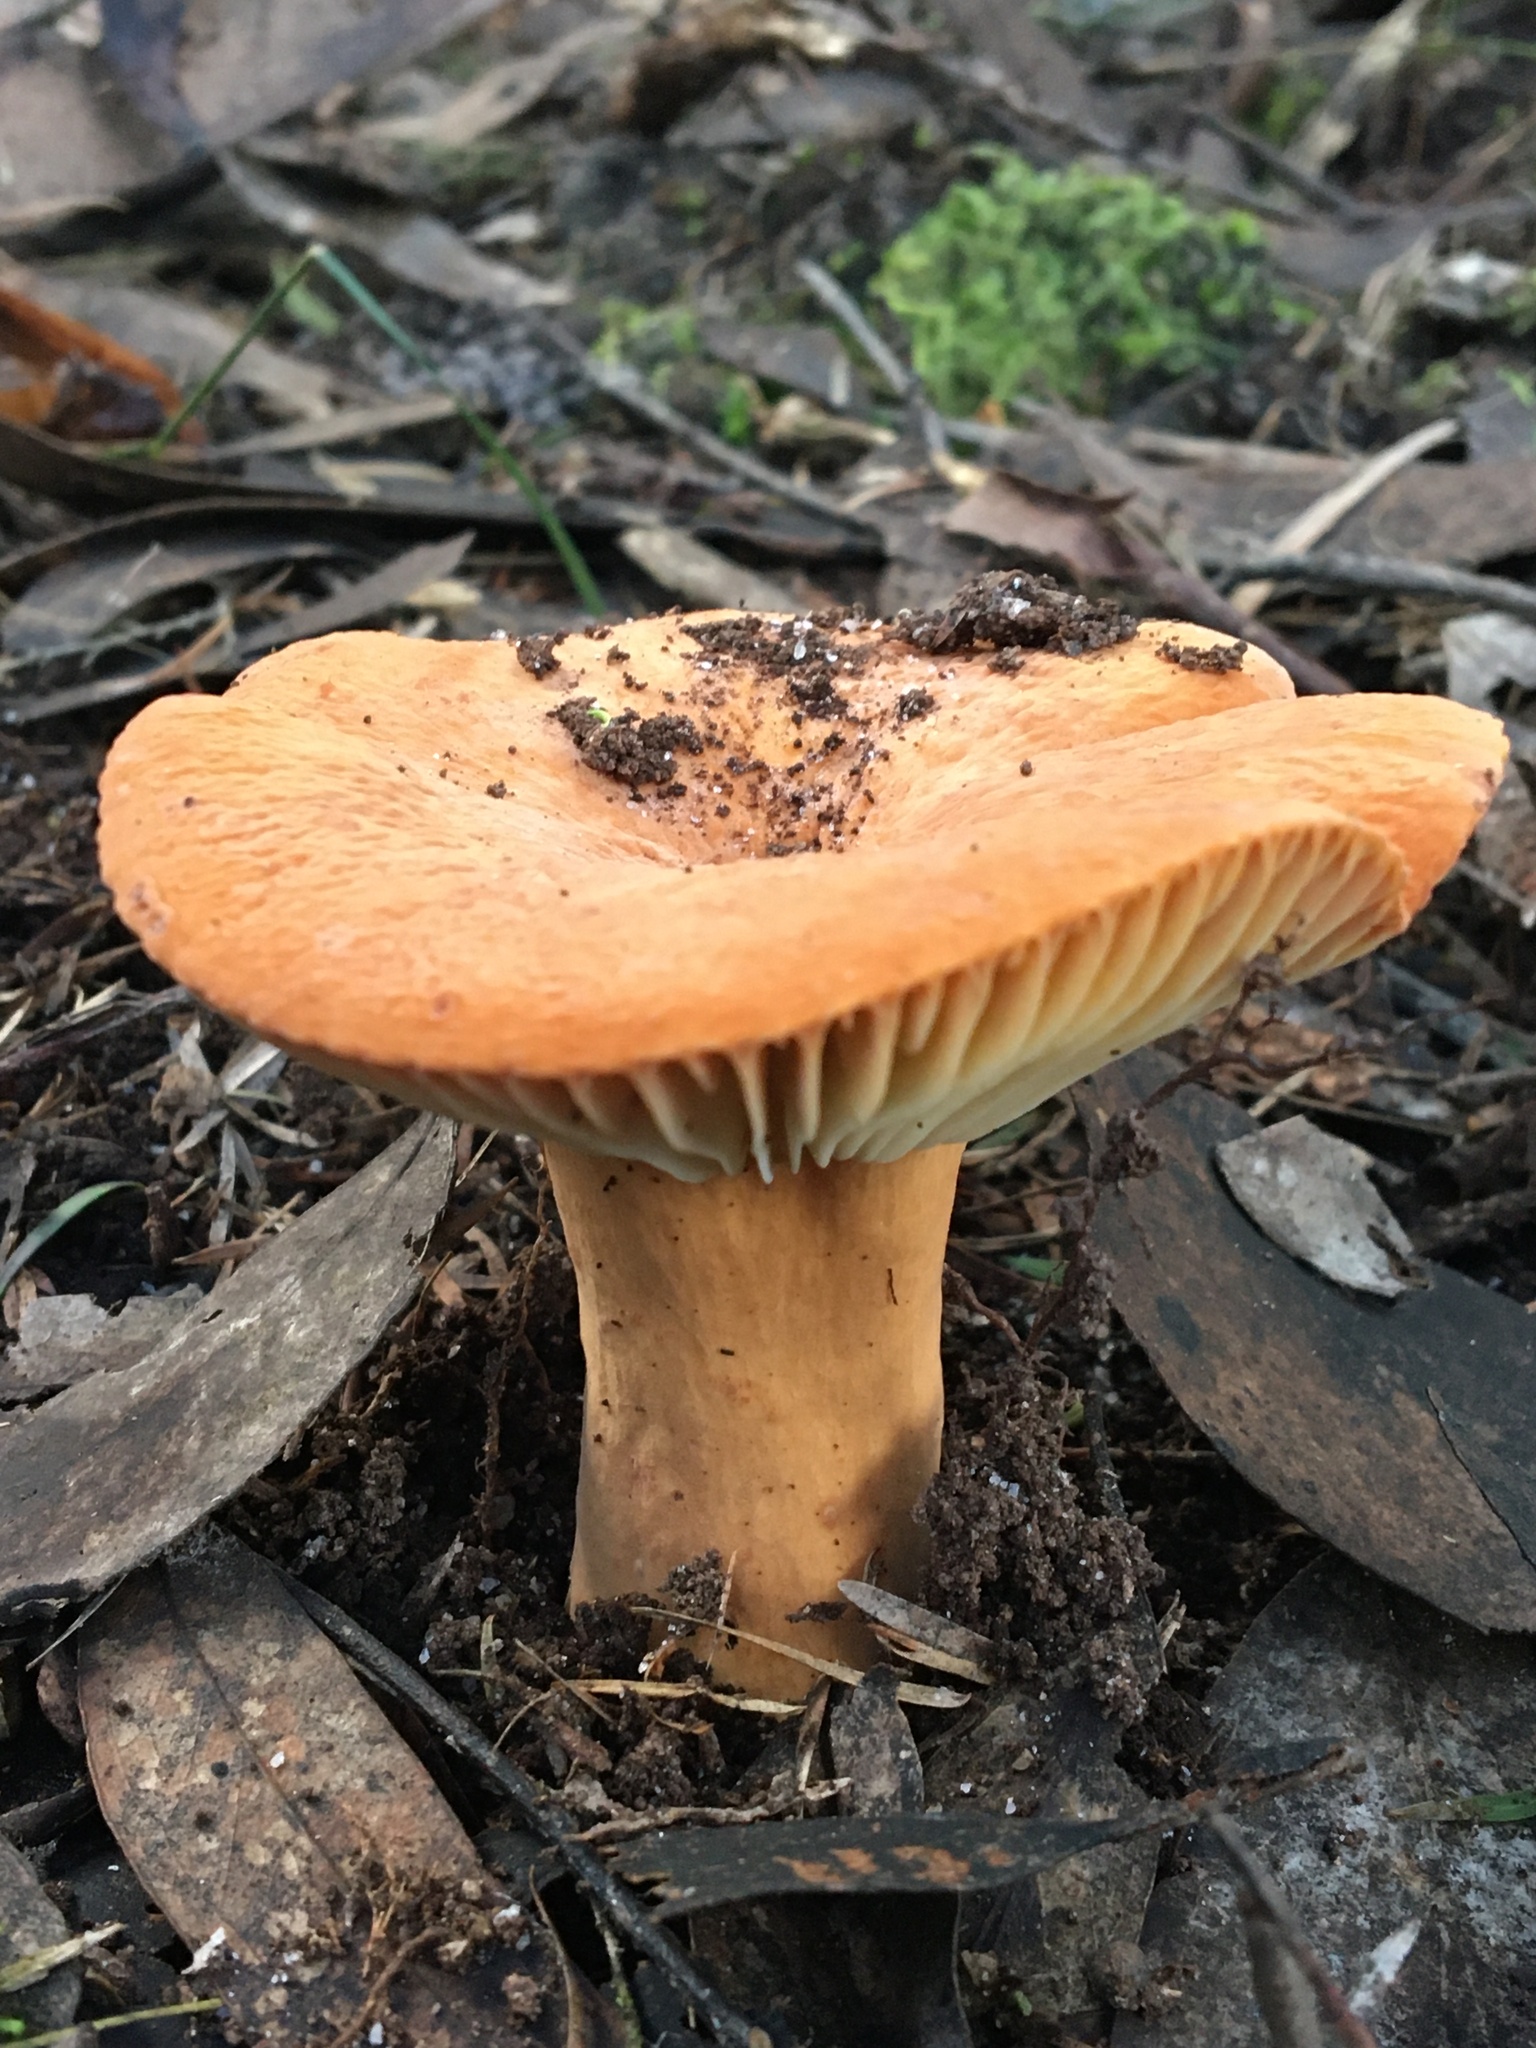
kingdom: Fungi
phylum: Basidiomycota
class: Agaricomycetes
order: Russulales
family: Russulaceae
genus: Lactifluus
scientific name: Lactifluus clarkeae
